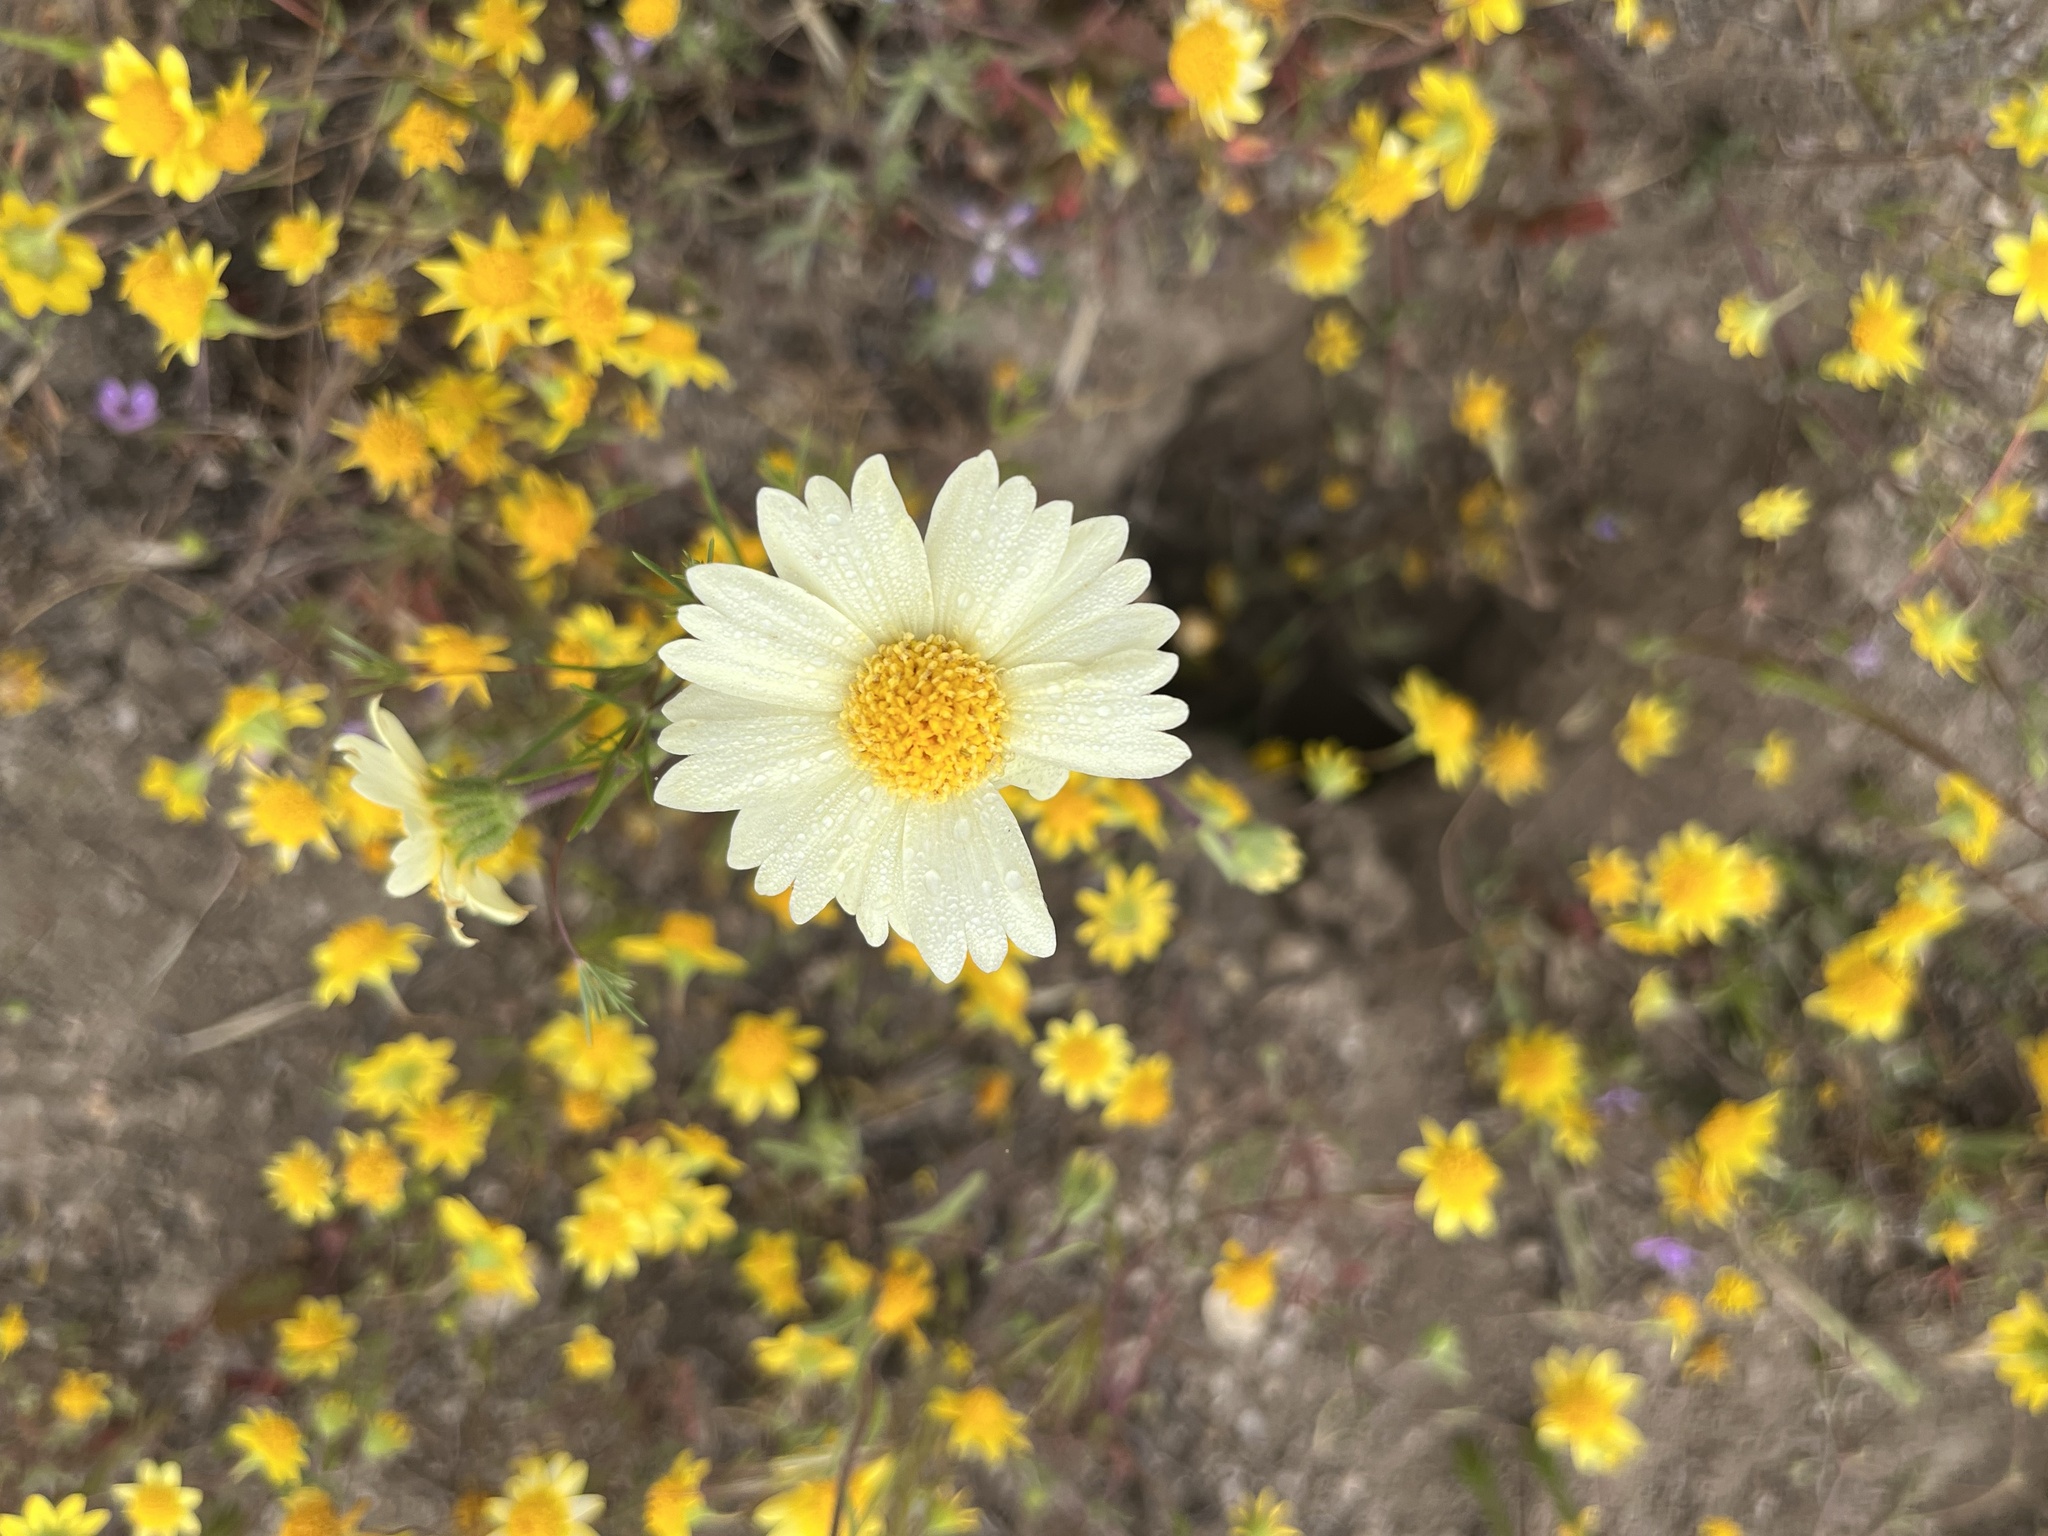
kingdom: Plantae
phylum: Tracheophyta
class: Magnoliopsida
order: Asterales
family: Asteraceae
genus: Layia
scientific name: Layia glandulosa
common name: White layia
